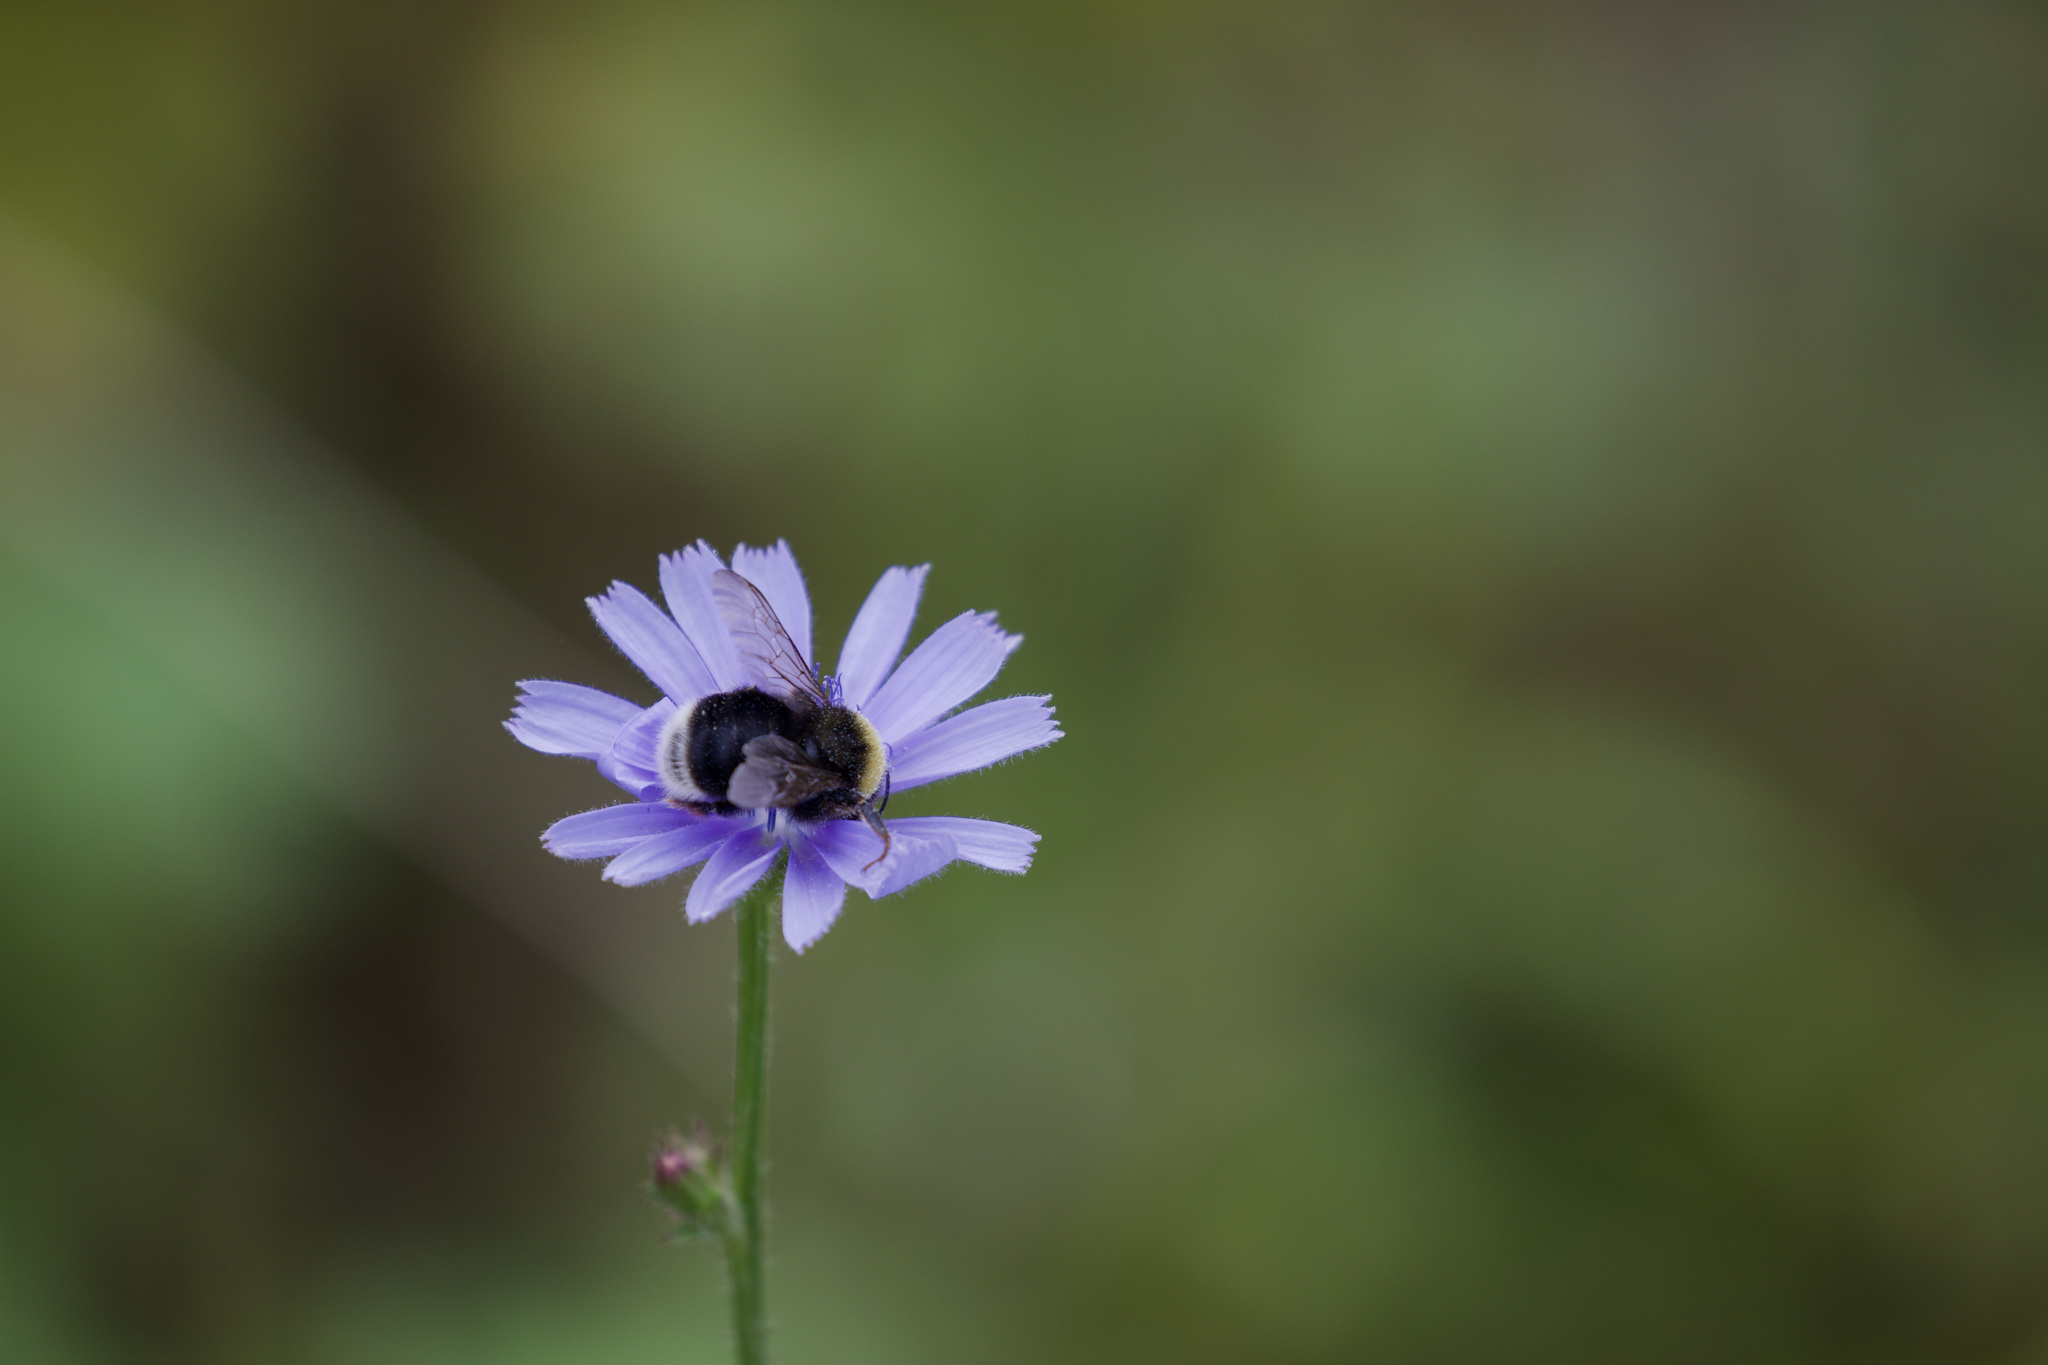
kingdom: Animalia
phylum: Arthropoda
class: Insecta
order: Hymenoptera
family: Apidae
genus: Bombus
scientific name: Bombus occidentalis
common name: Western bumble bee
